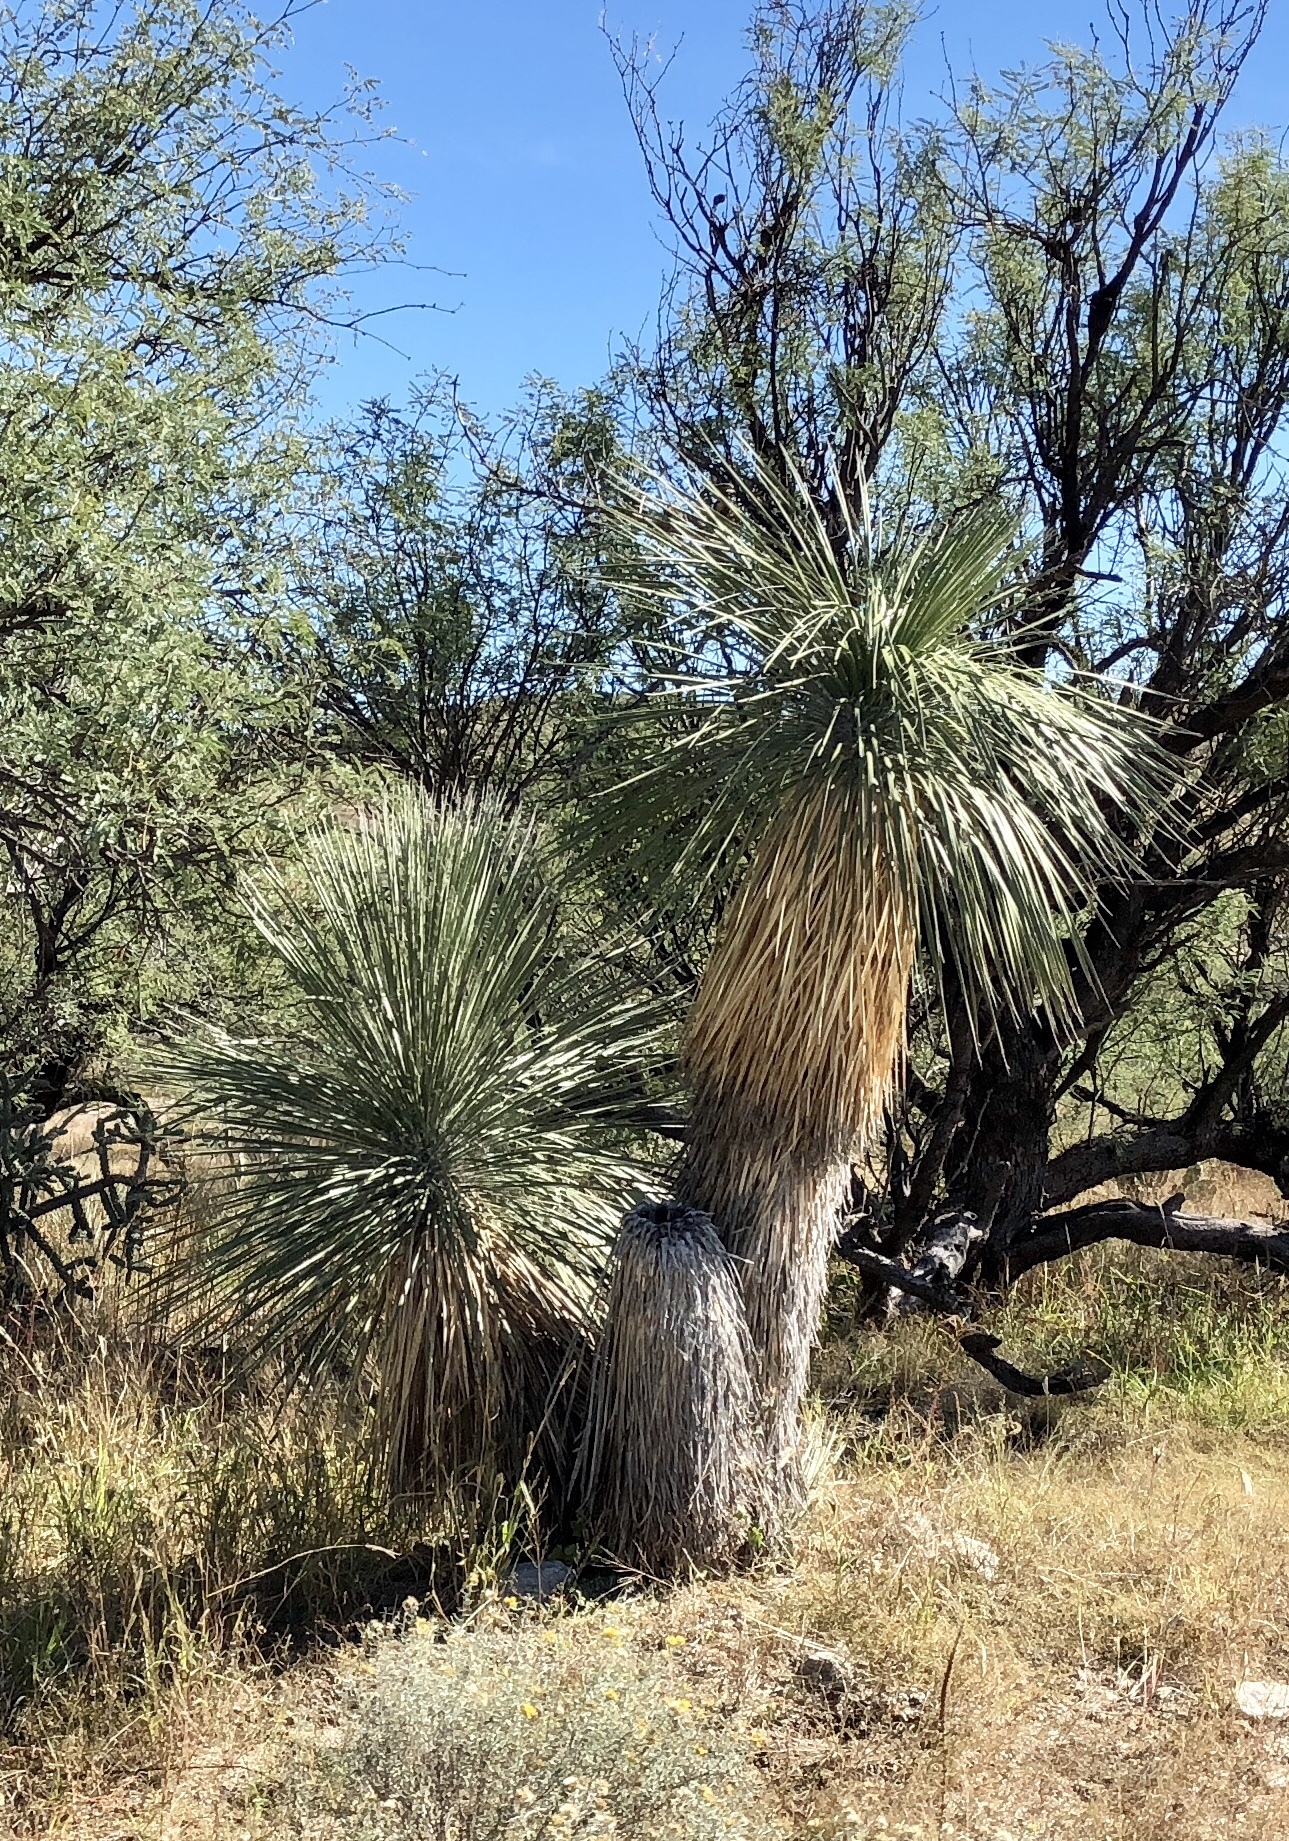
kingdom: Plantae
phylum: Tracheophyta
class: Liliopsida
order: Asparagales
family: Asparagaceae
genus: Yucca
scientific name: Yucca elata
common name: Palmella
